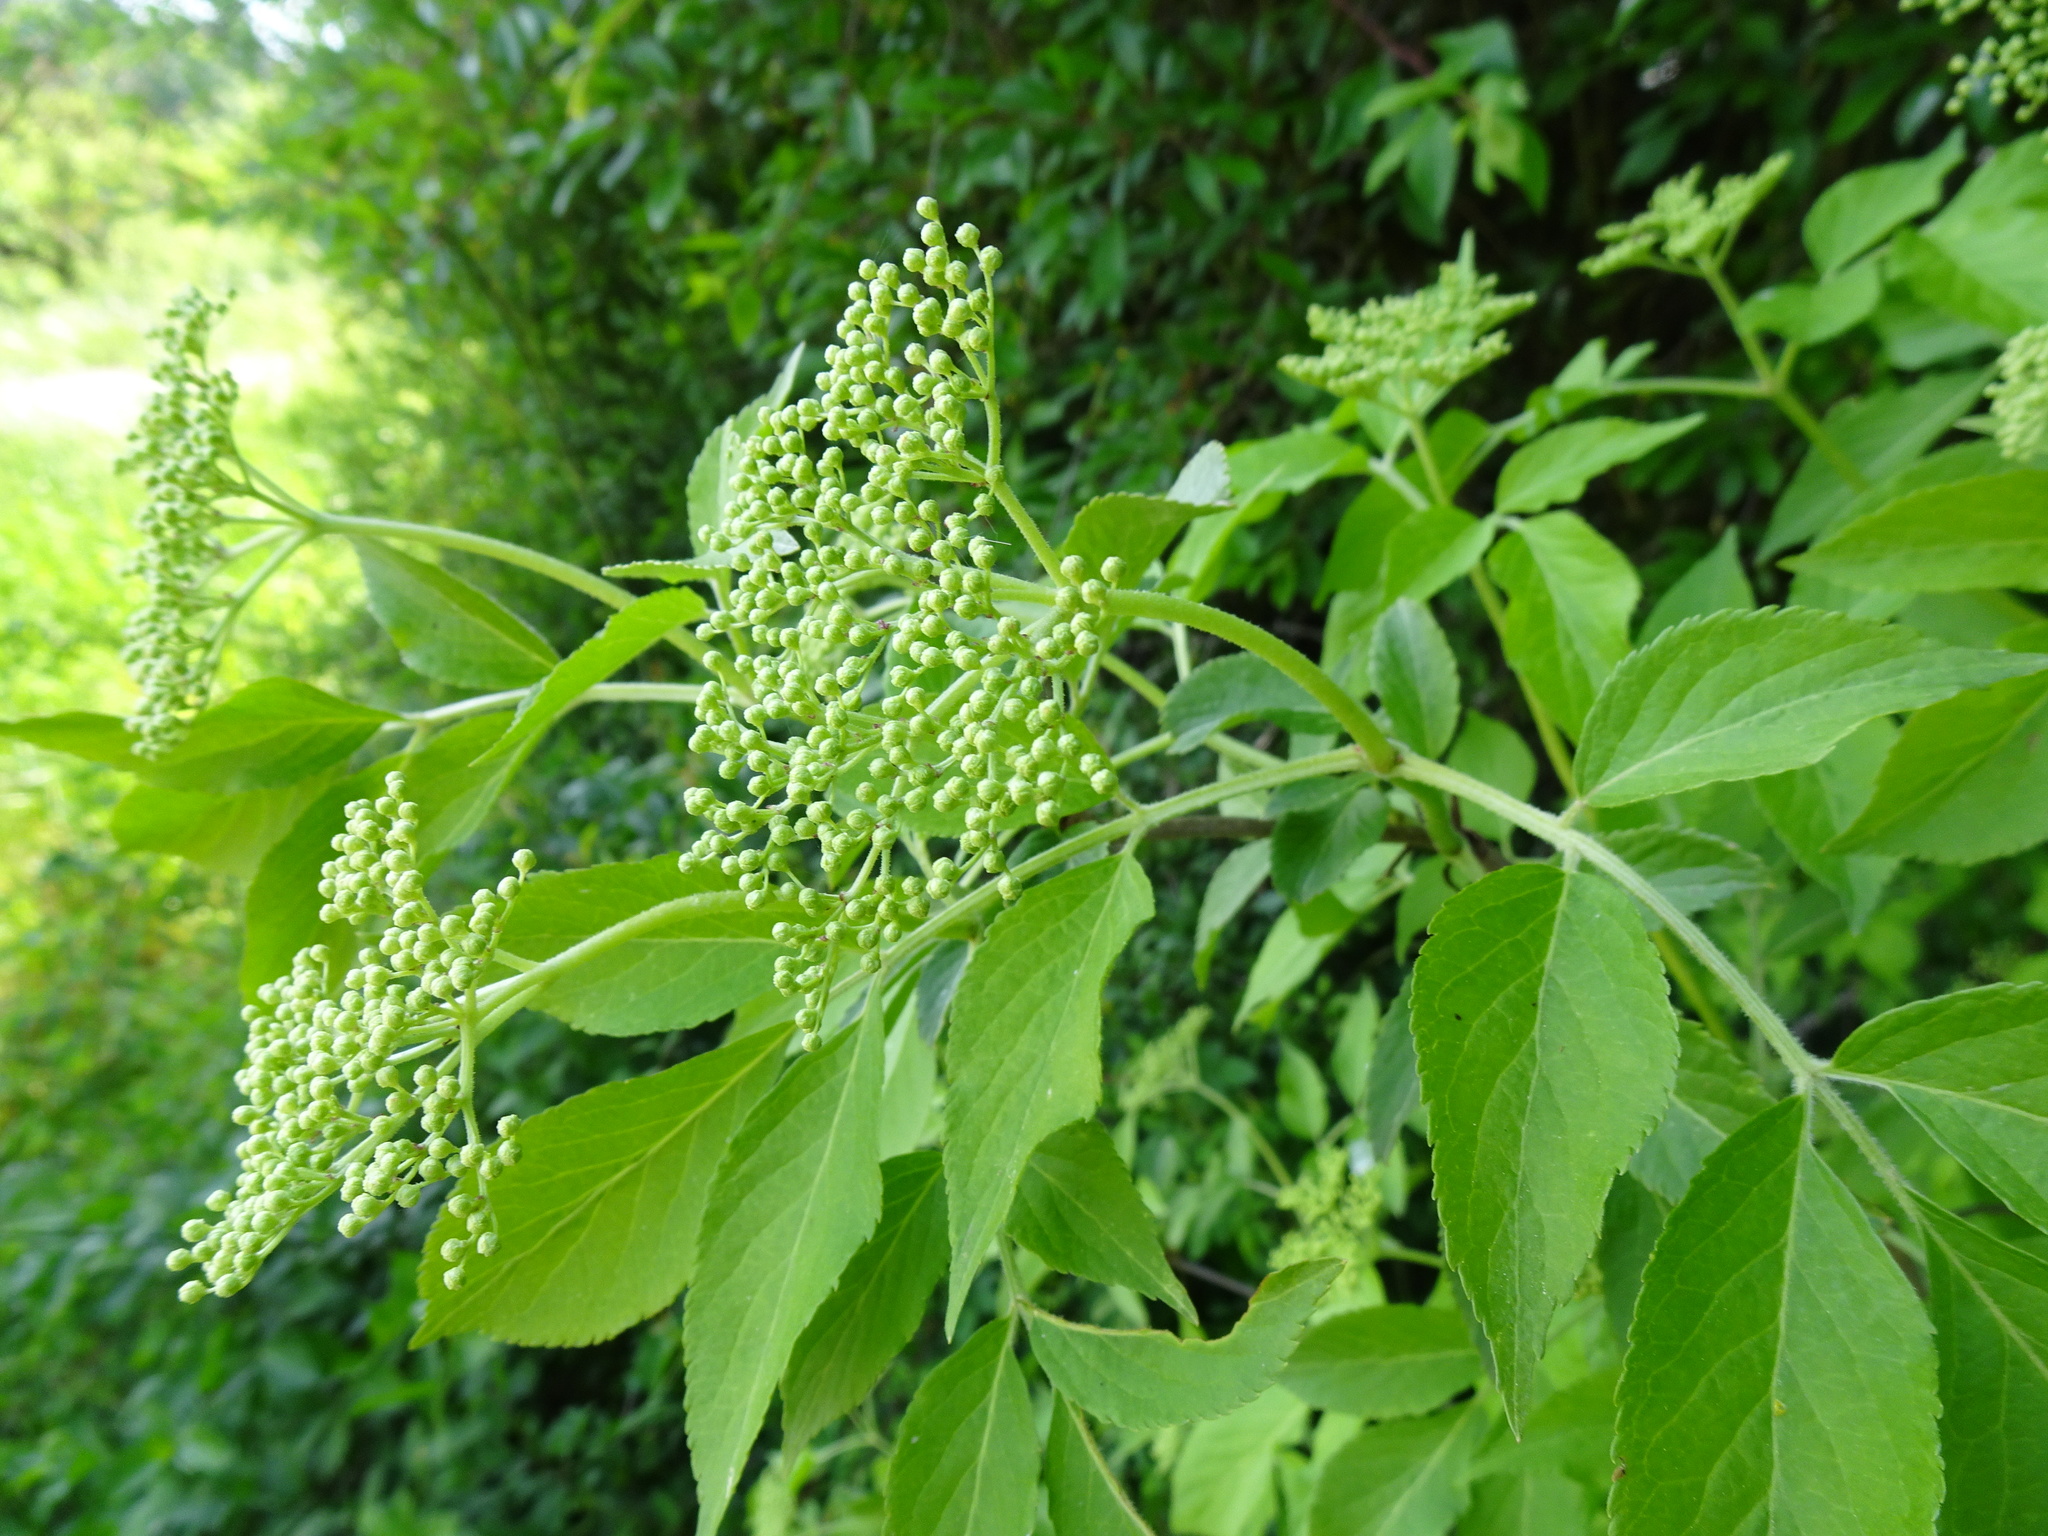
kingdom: Plantae
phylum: Tracheophyta
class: Magnoliopsida
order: Dipsacales
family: Viburnaceae
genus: Sambucus
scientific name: Sambucus nigra
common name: Elder
